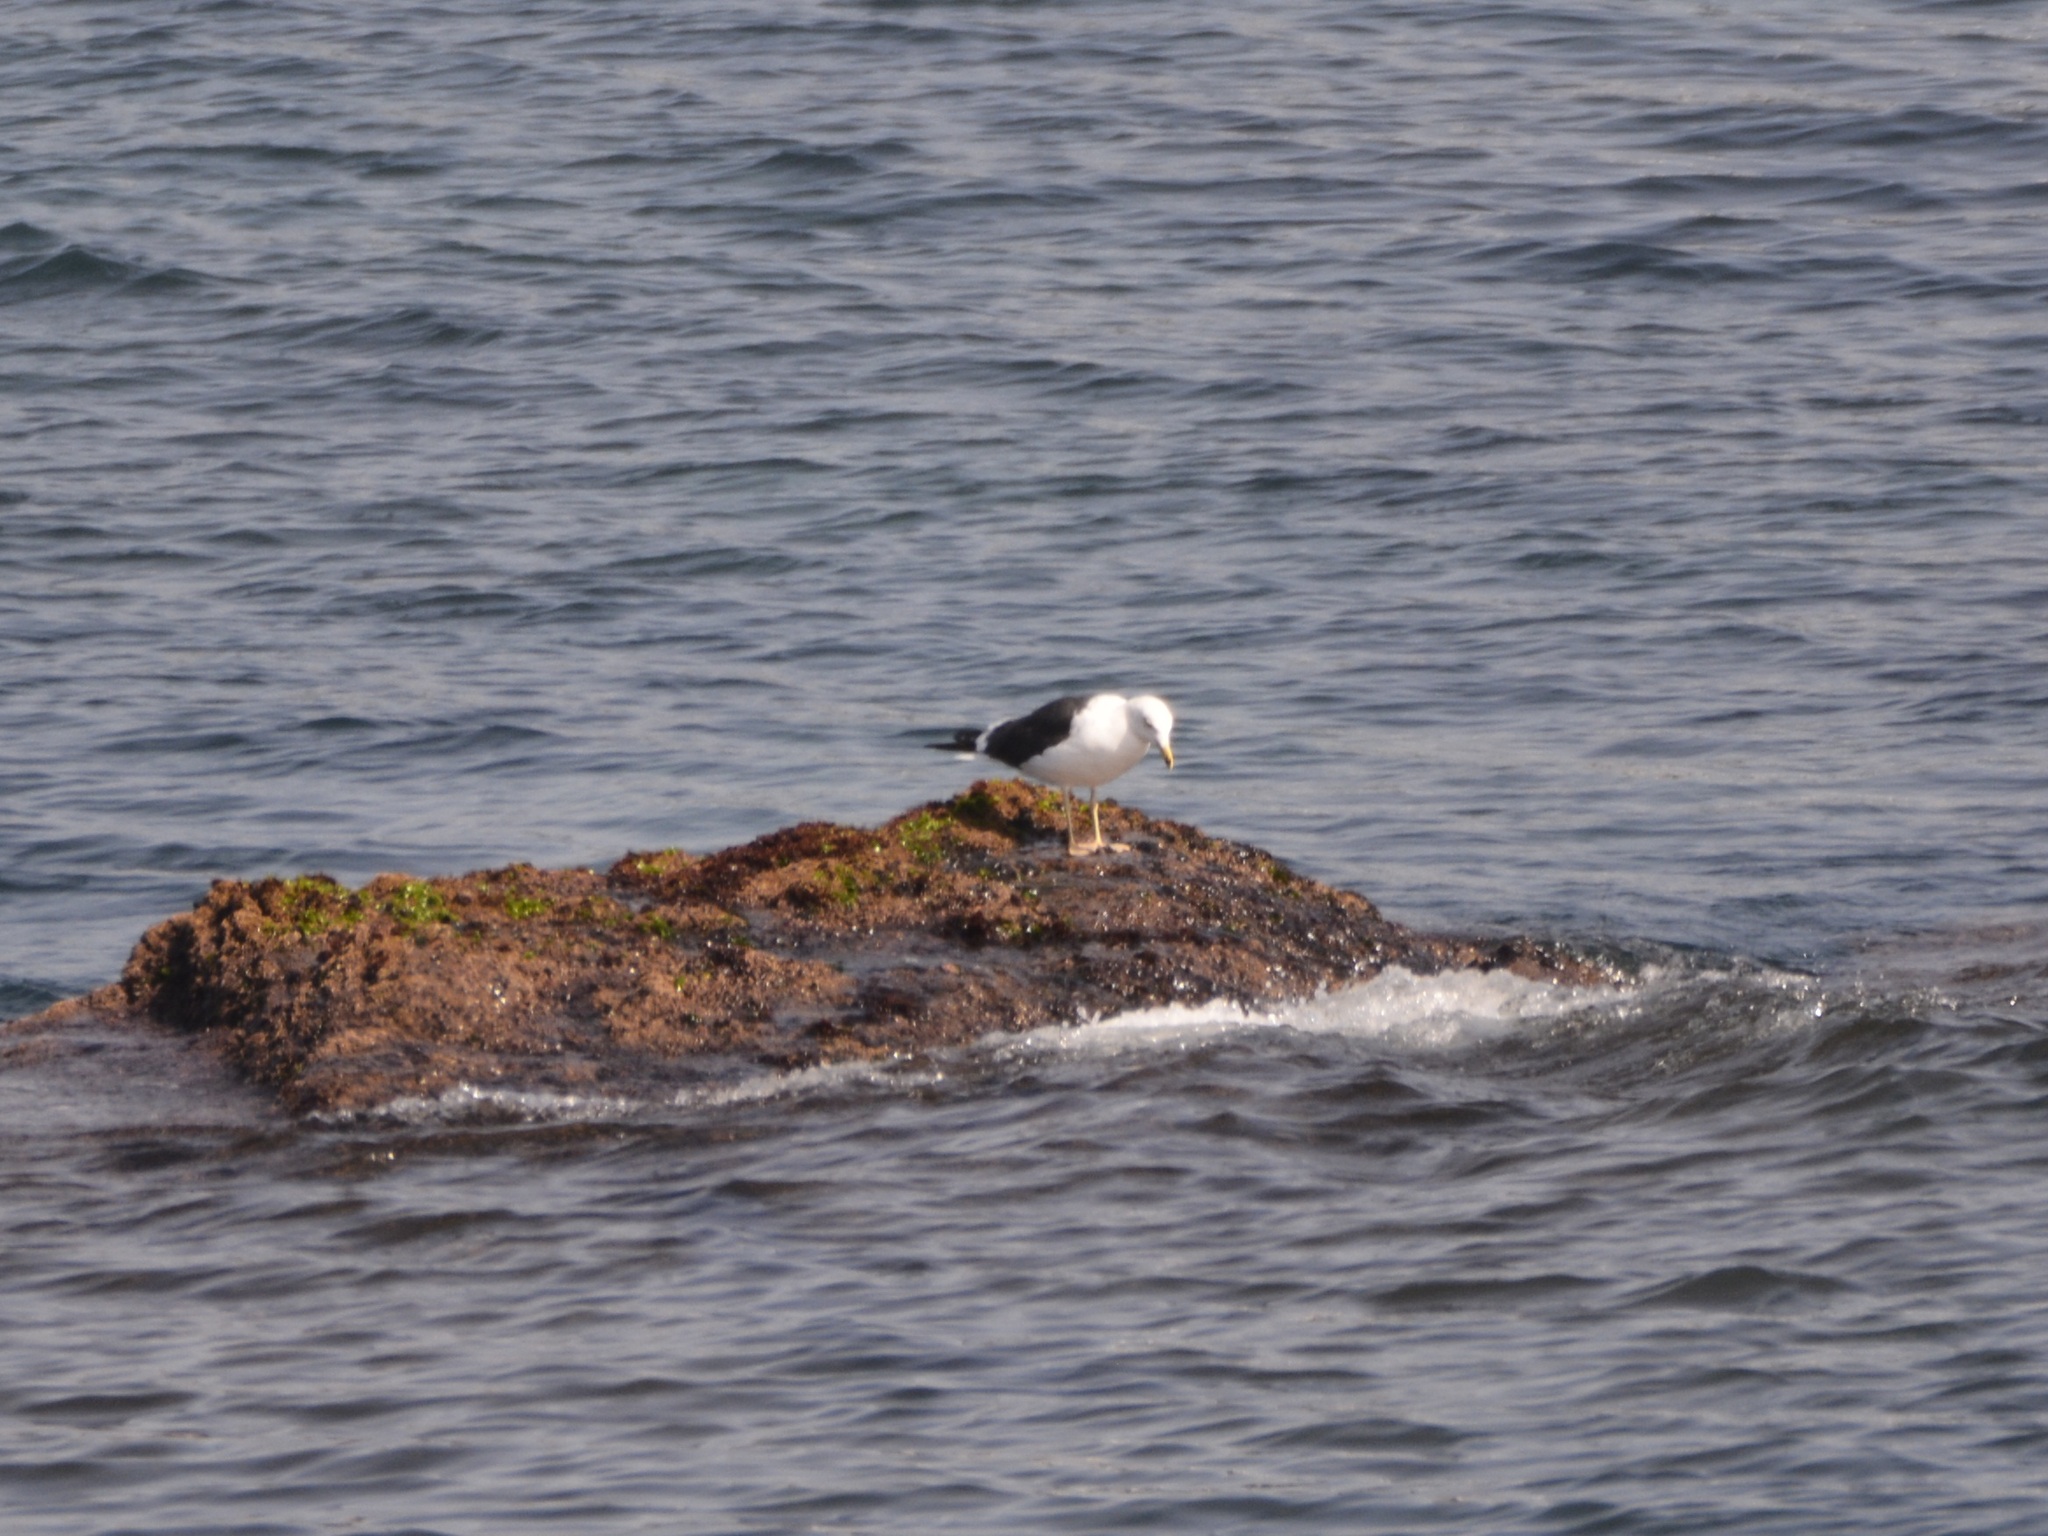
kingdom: Animalia
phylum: Chordata
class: Aves
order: Charadriiformes
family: Laridae
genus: Larus
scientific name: Larus fuscus
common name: Lesser black-backed gull
